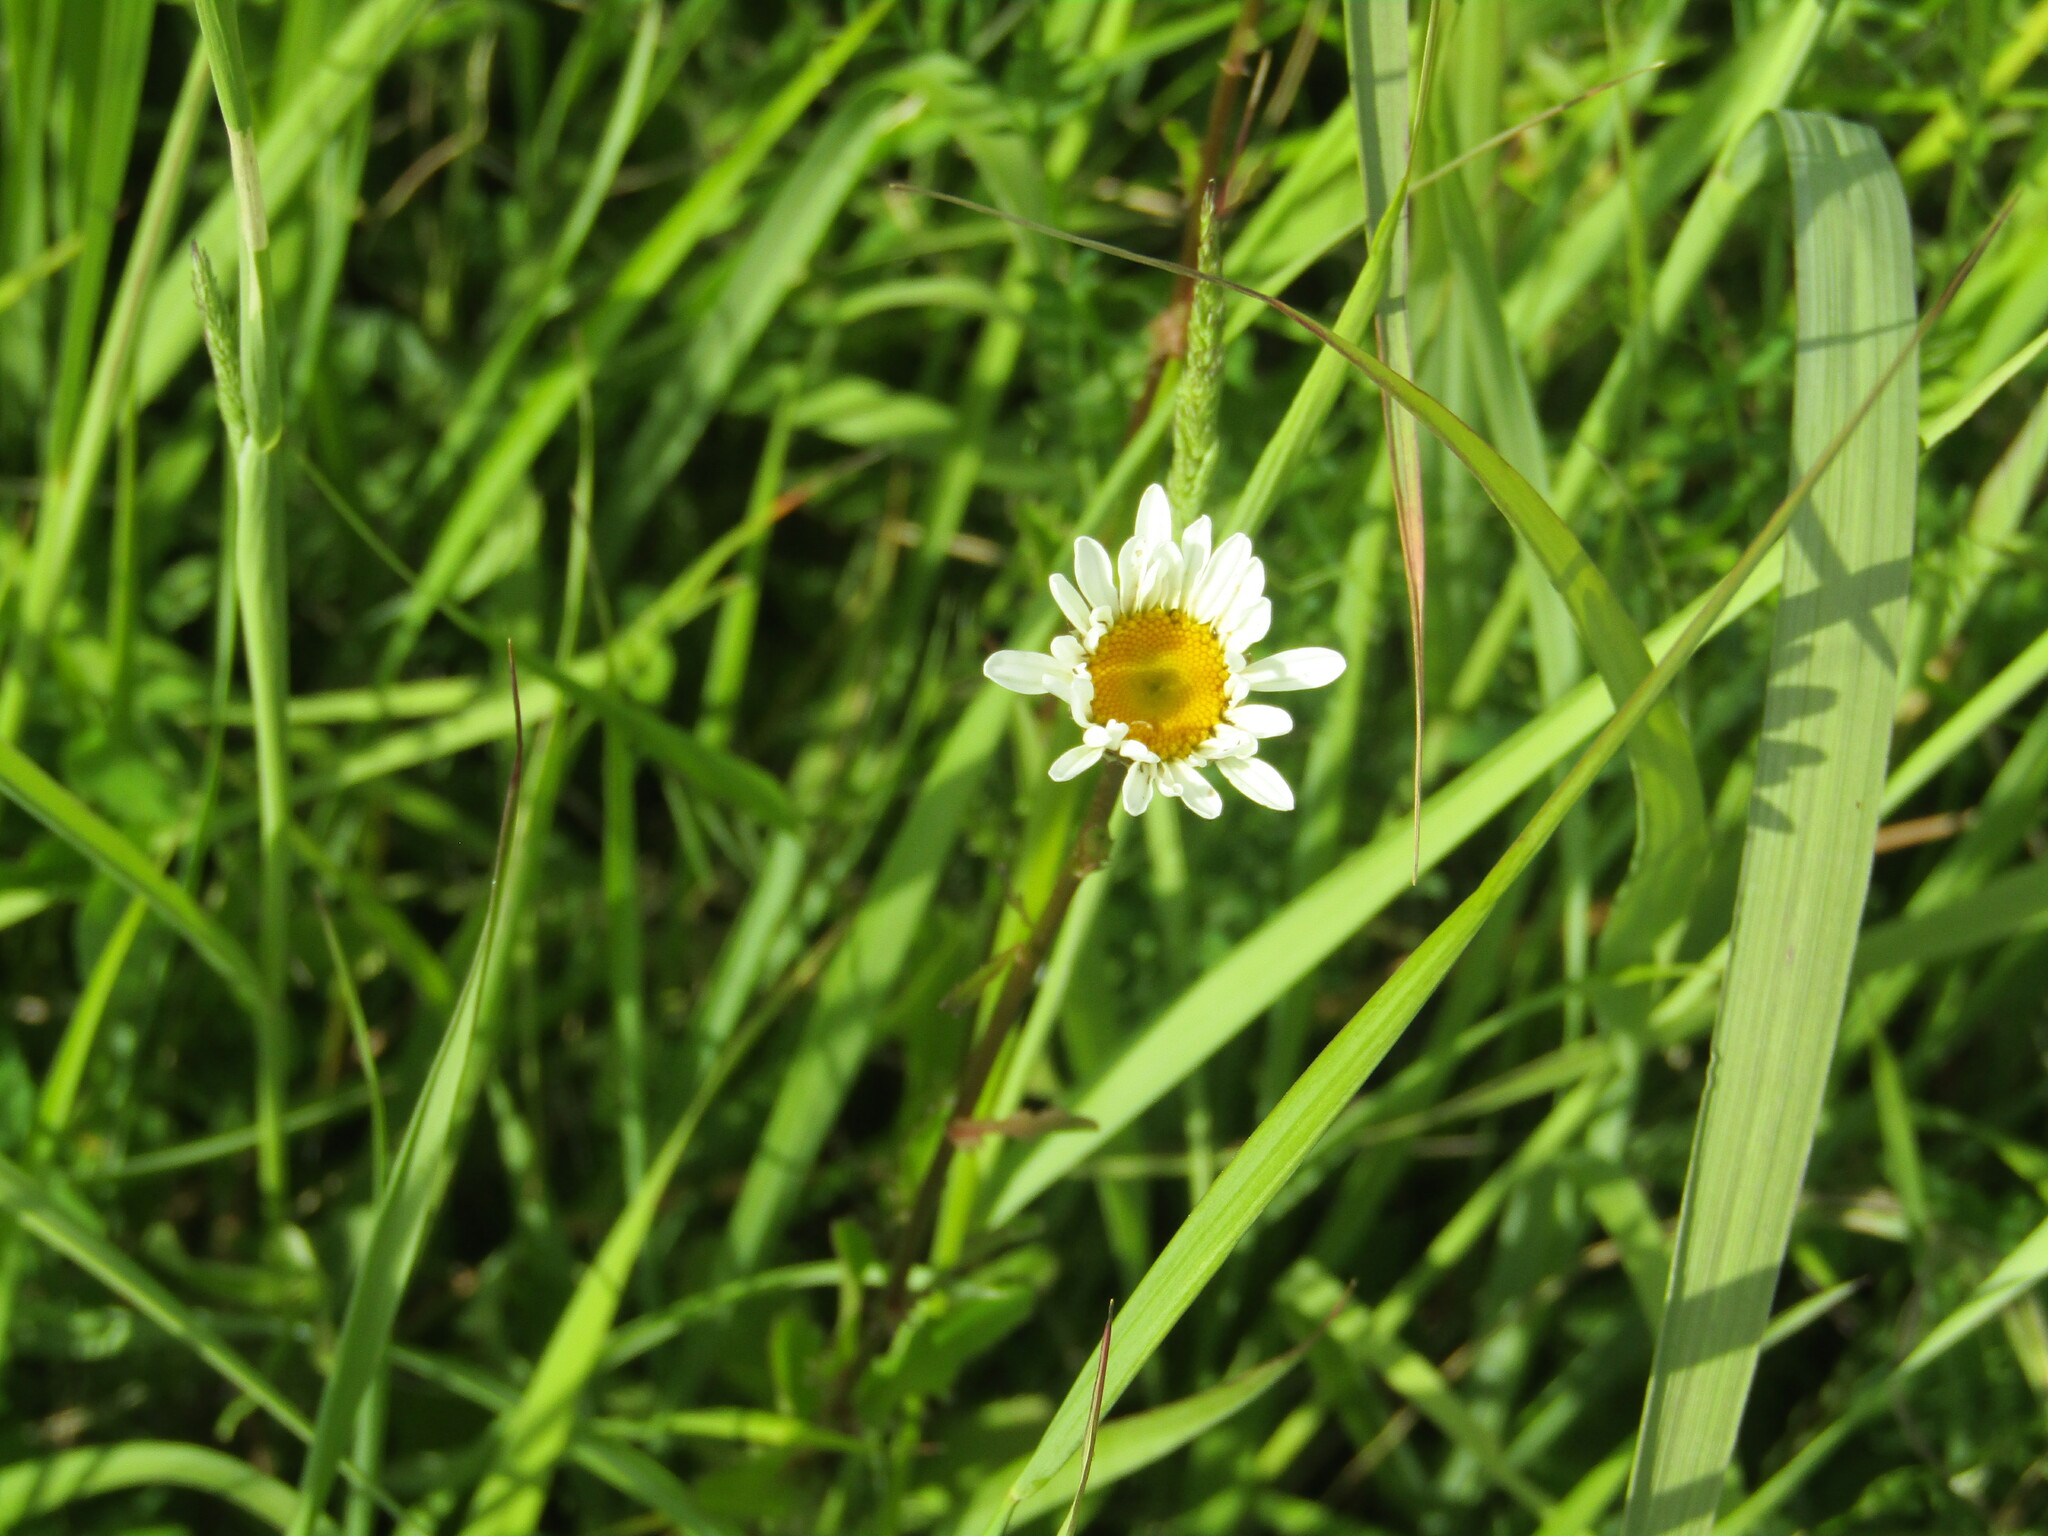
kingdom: Plantae
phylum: Tracheophyta
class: Magnoliopsida
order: Asterales
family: Asteraceae
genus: Leucanthemum
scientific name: Leucanthemum vulgare
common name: Oxeye daisy
